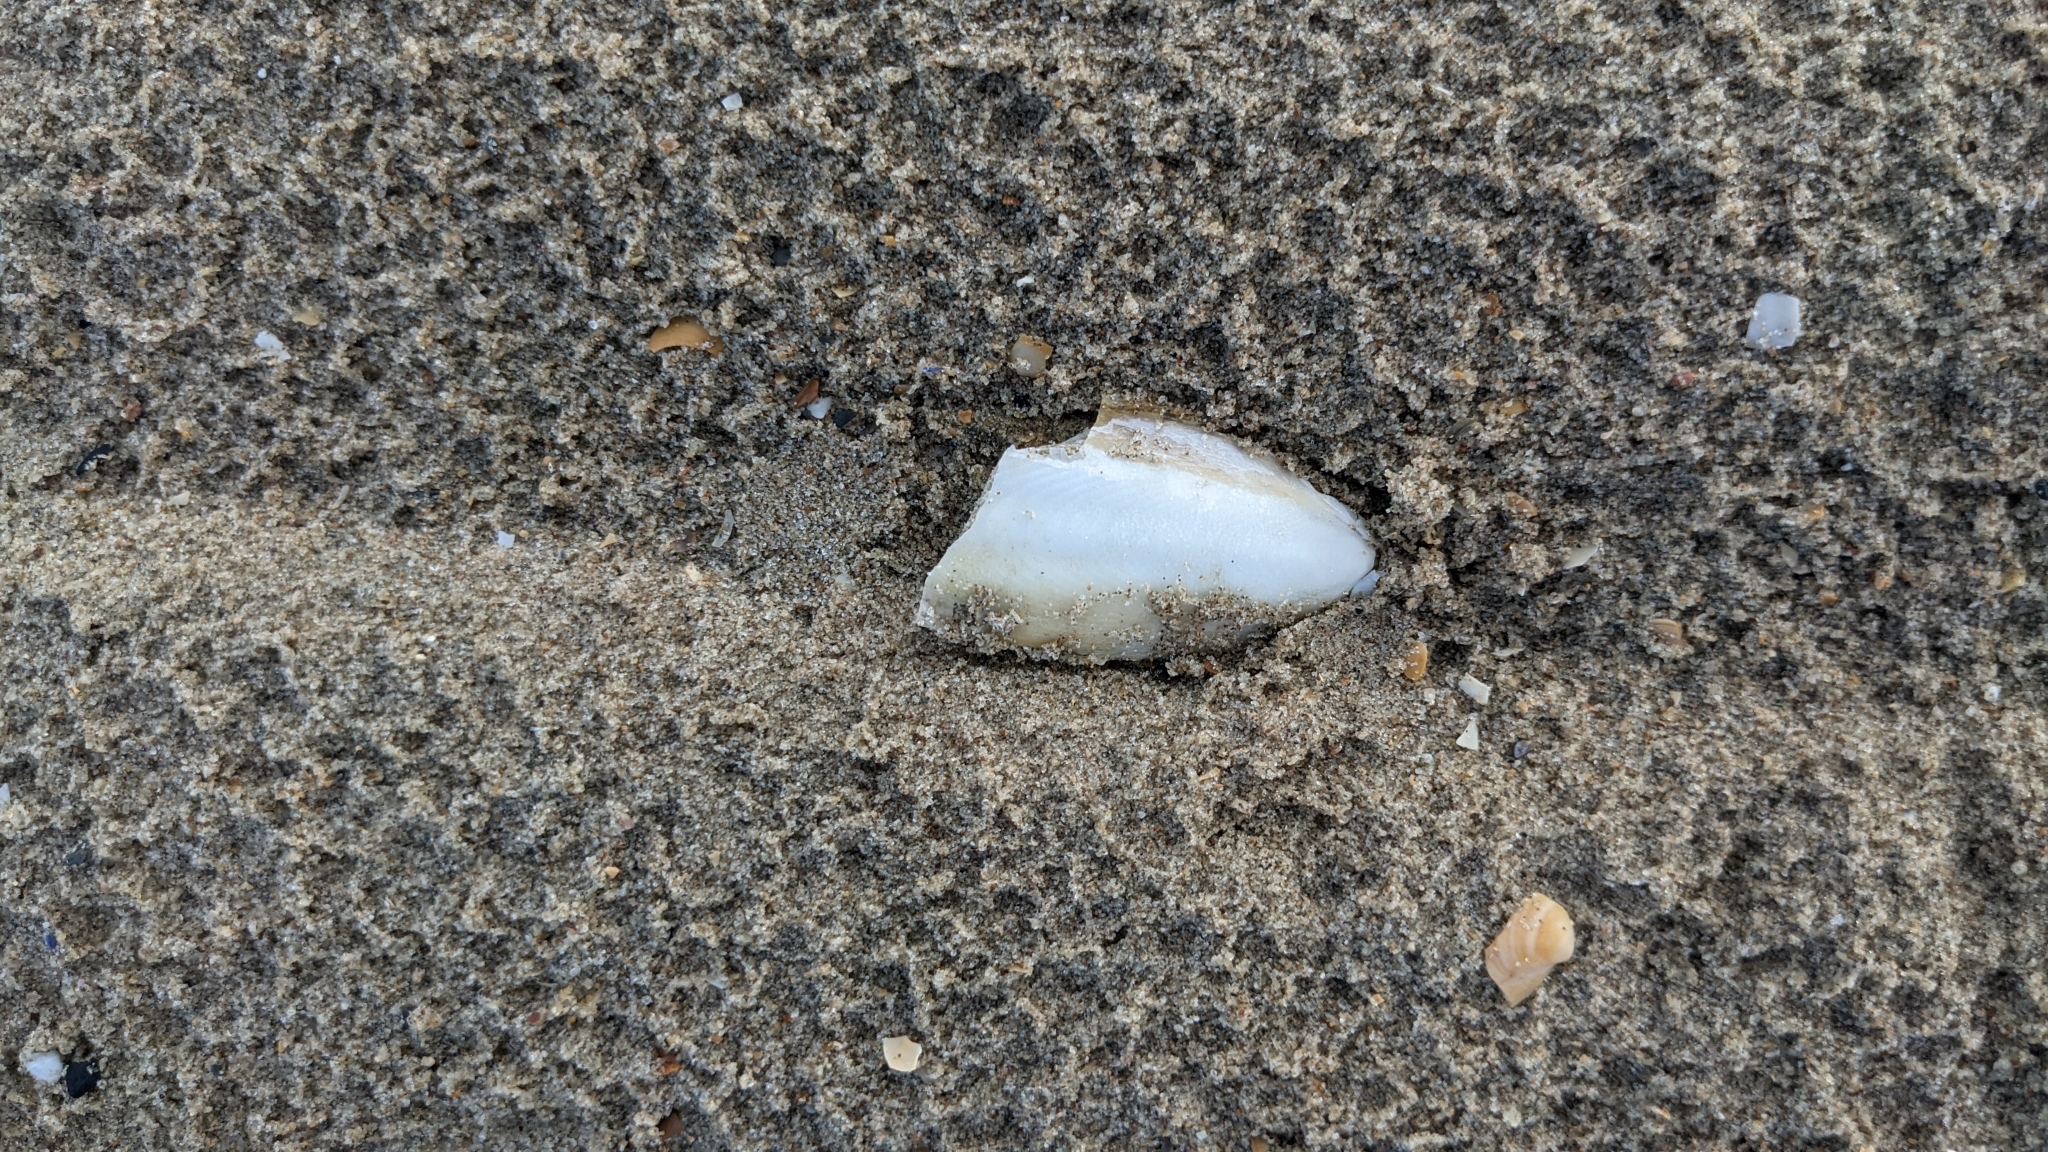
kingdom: Animalia
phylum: Mollusca
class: Cephalopoda
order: Sepiida
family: Sepiidae
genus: Sepia
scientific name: Sepia officinalis
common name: Common cuttlefish
